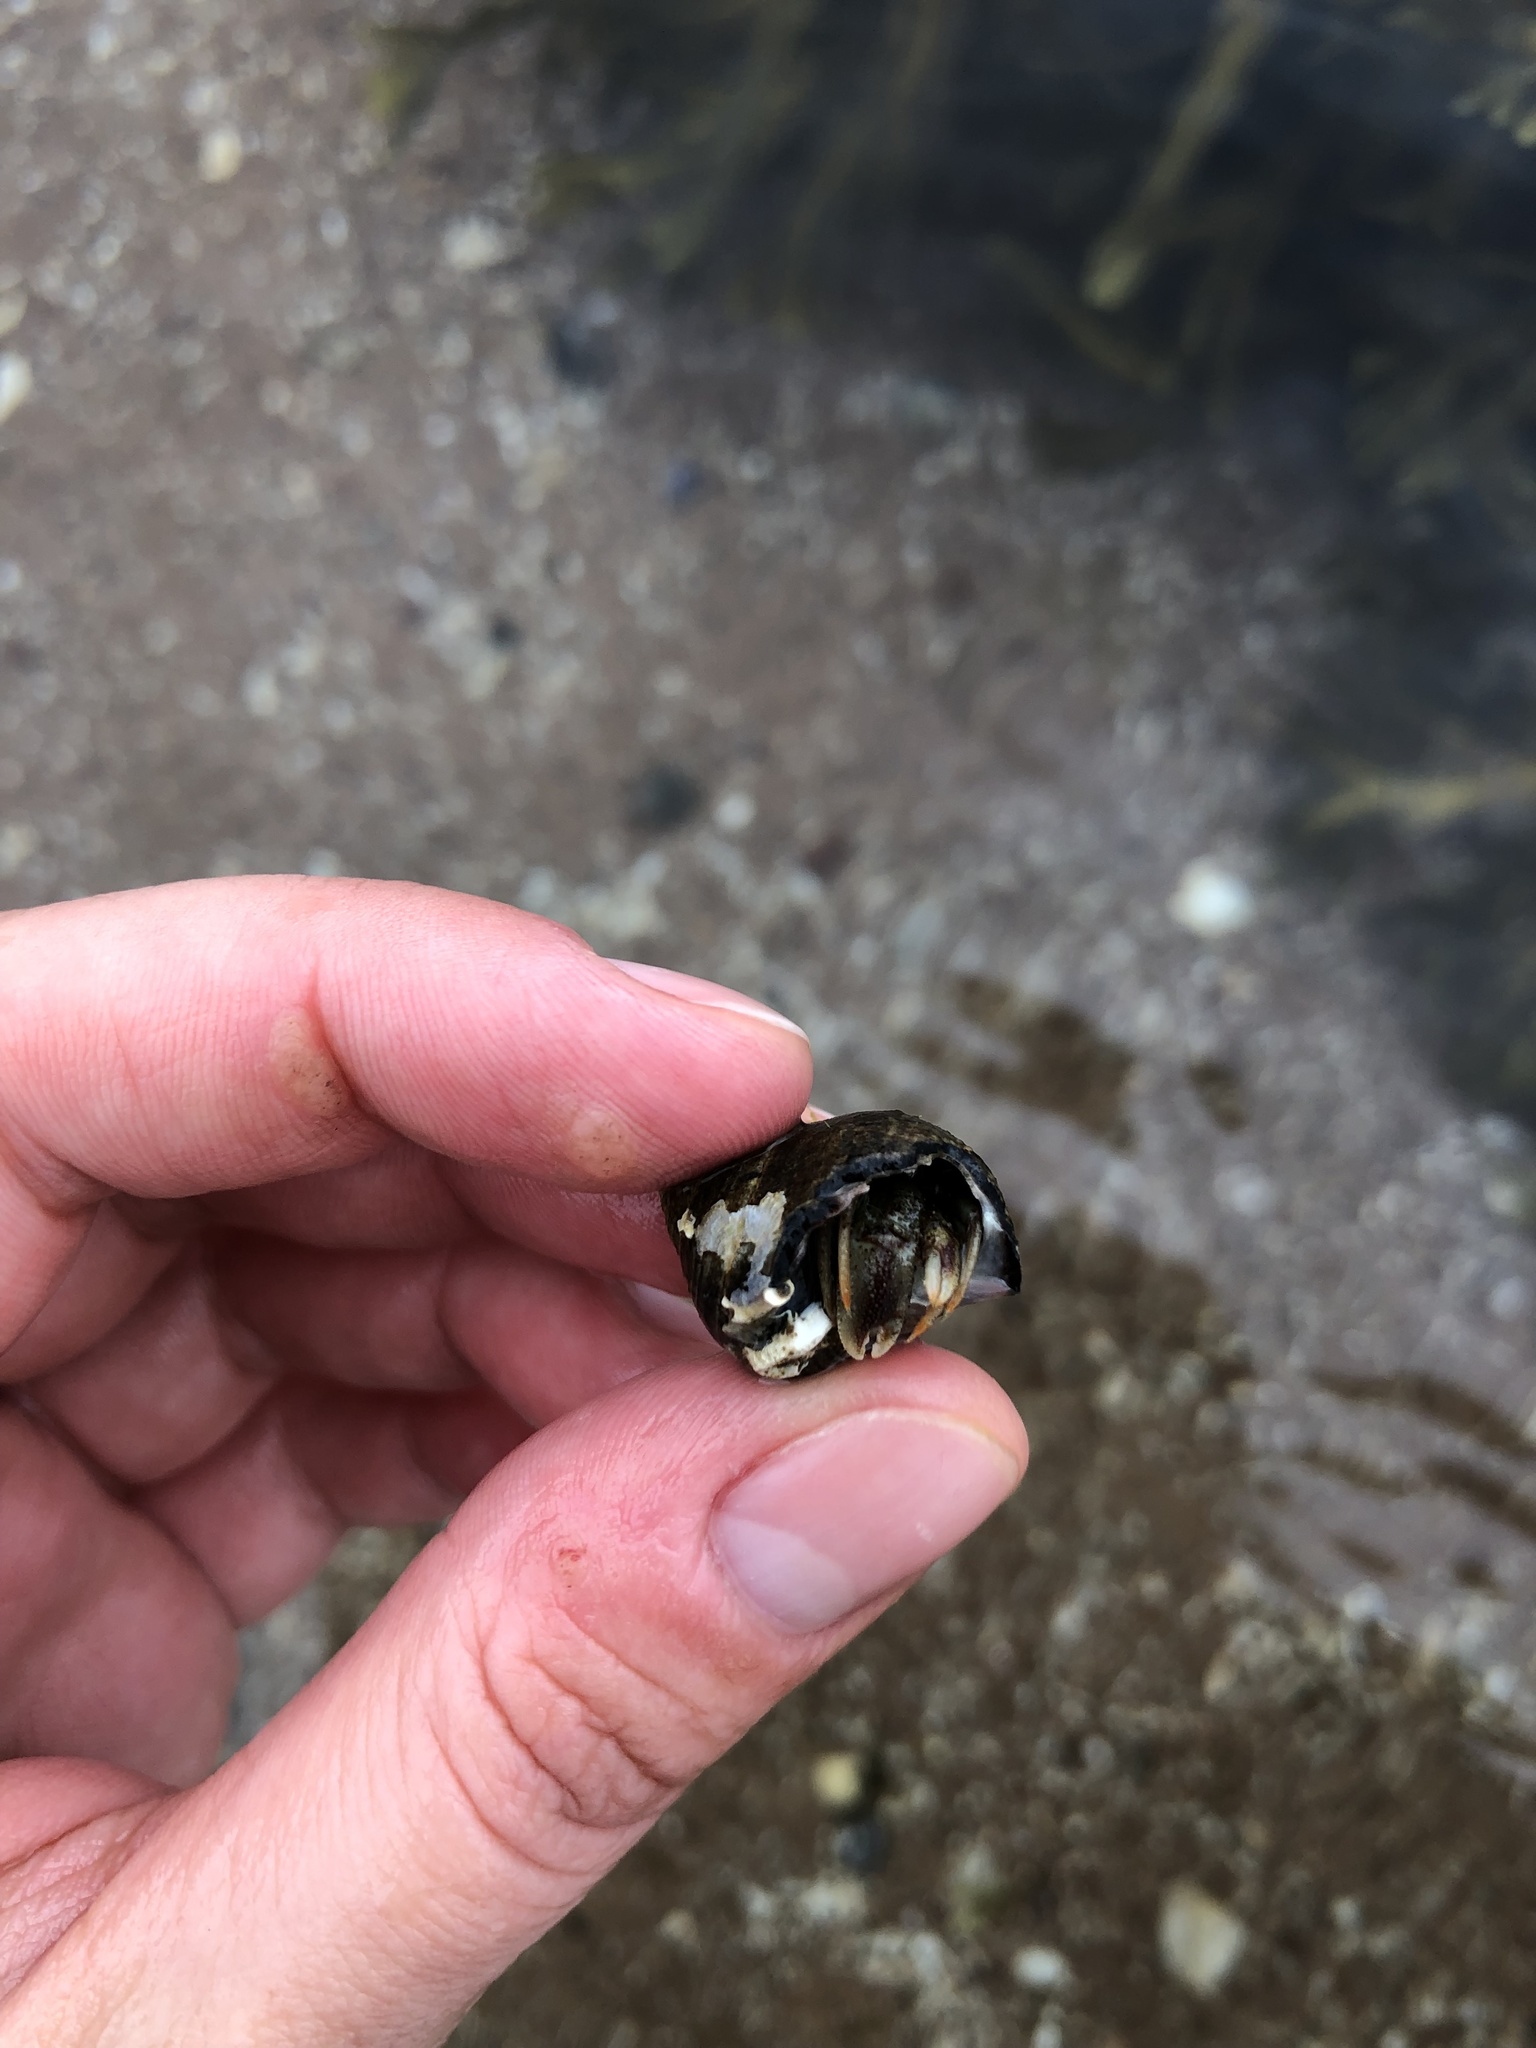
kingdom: Animalia
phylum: Arthropoda
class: Malacostraca
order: Decapoda
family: Paguridae
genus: Pagurus
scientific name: Pagurus bernhardus
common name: Hermit crab
